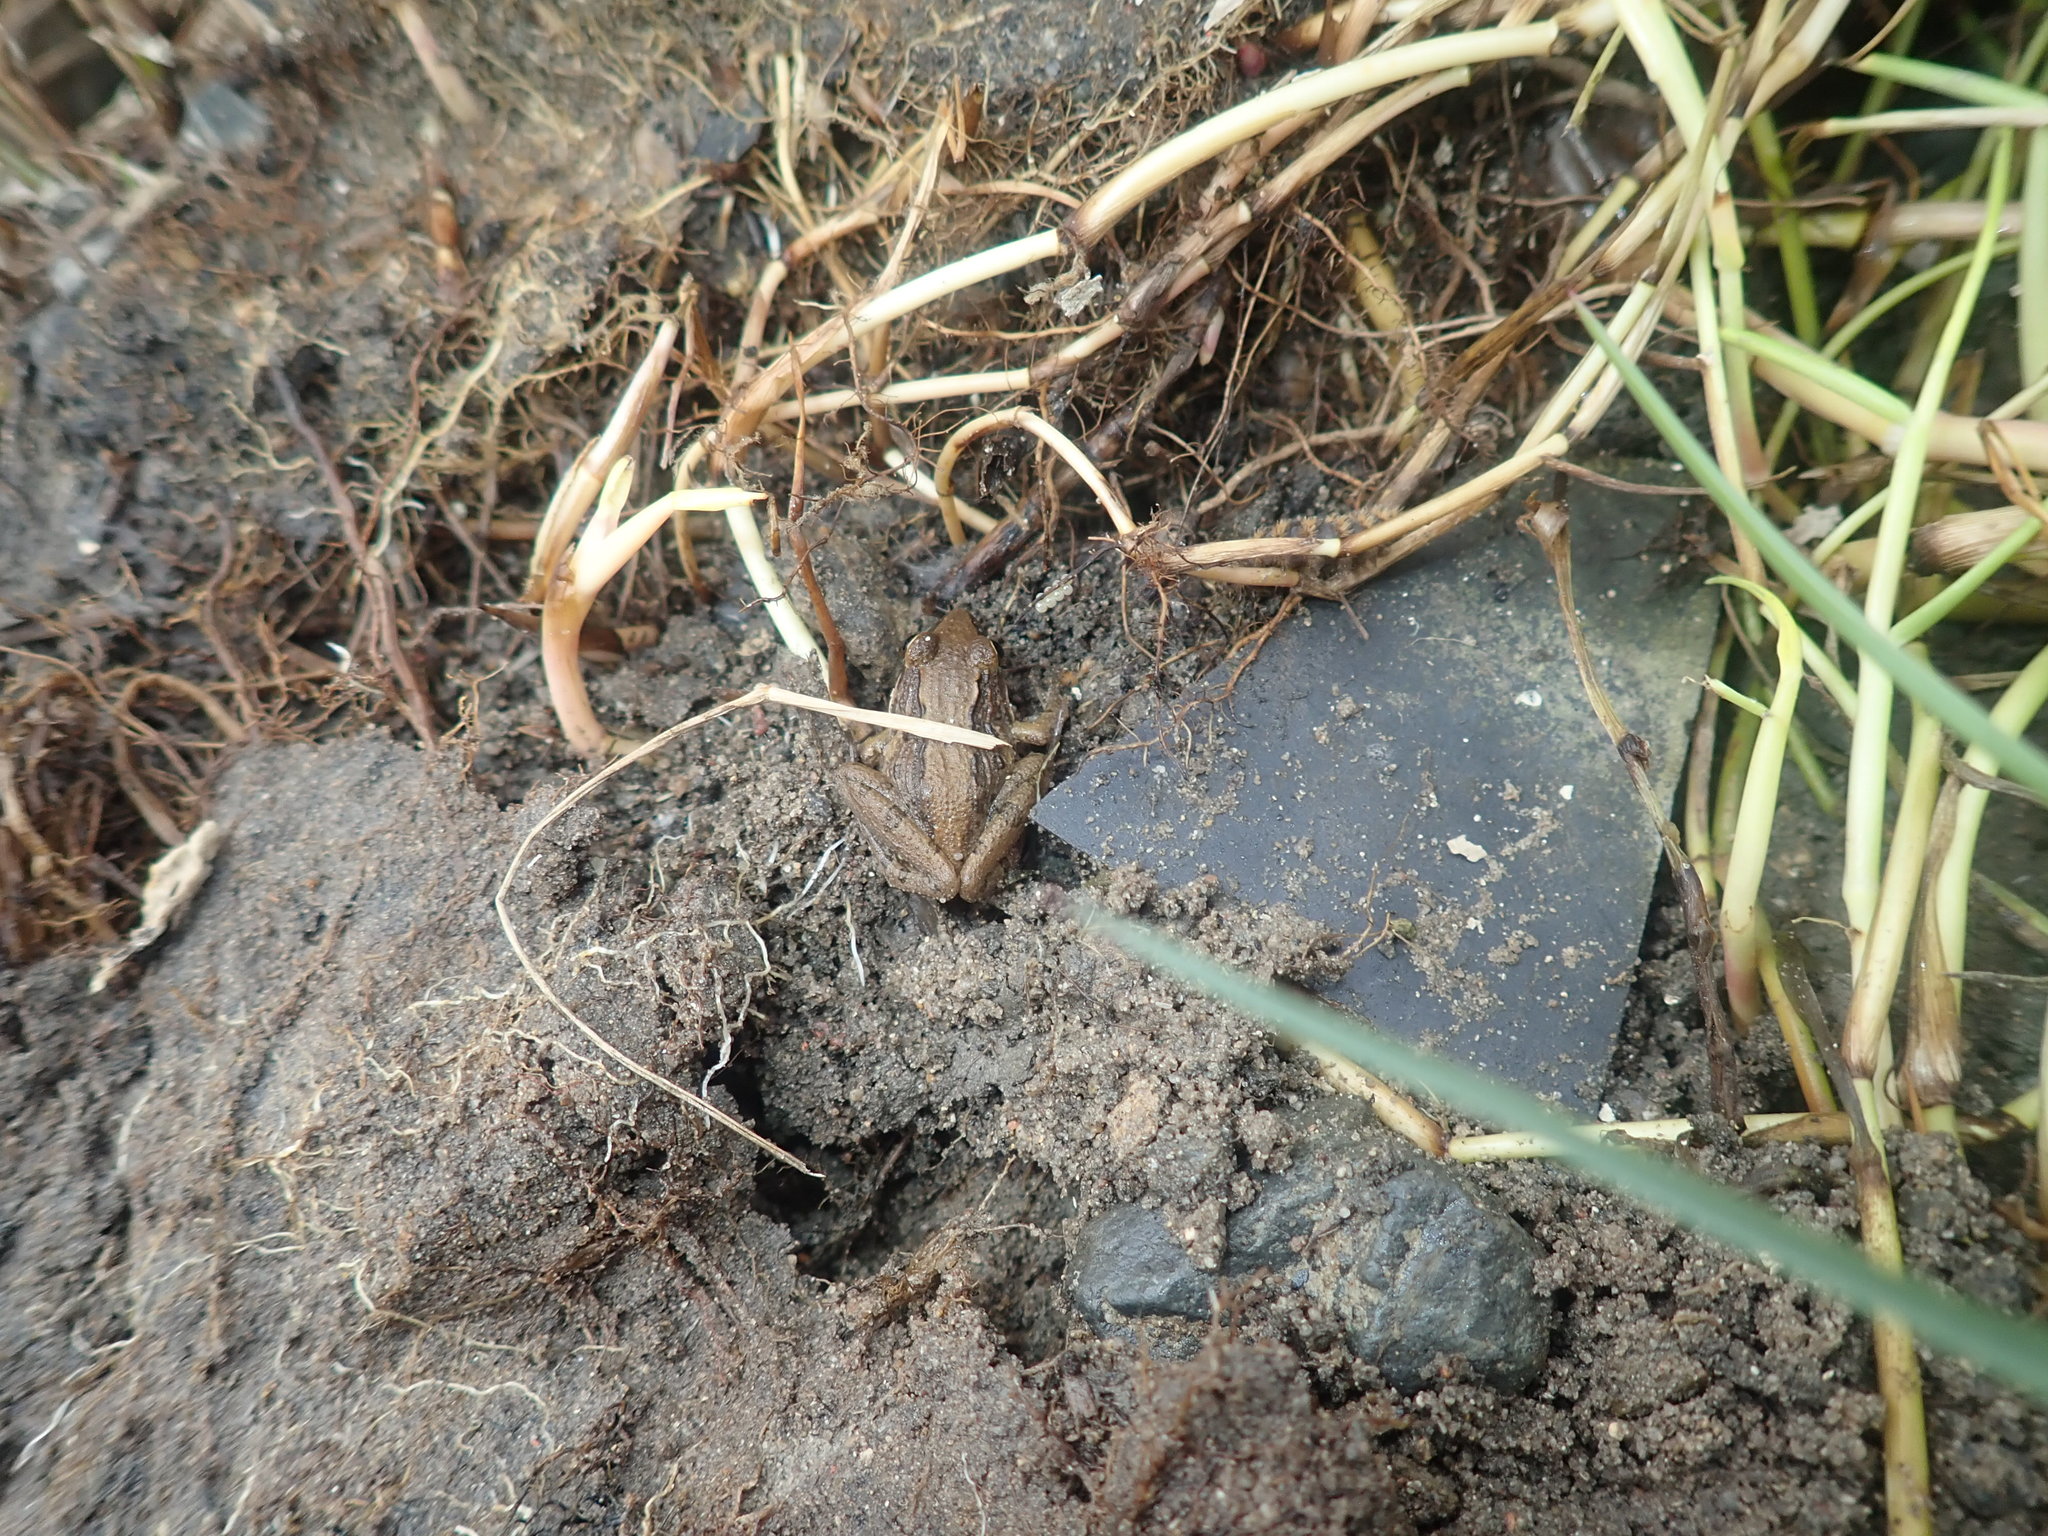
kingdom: Animalia
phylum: Chordata
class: Amphibia
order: Anura
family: Pyxicephalidae
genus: Strongylopus
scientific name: Strongylopus grayii
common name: Gray's stream frog
